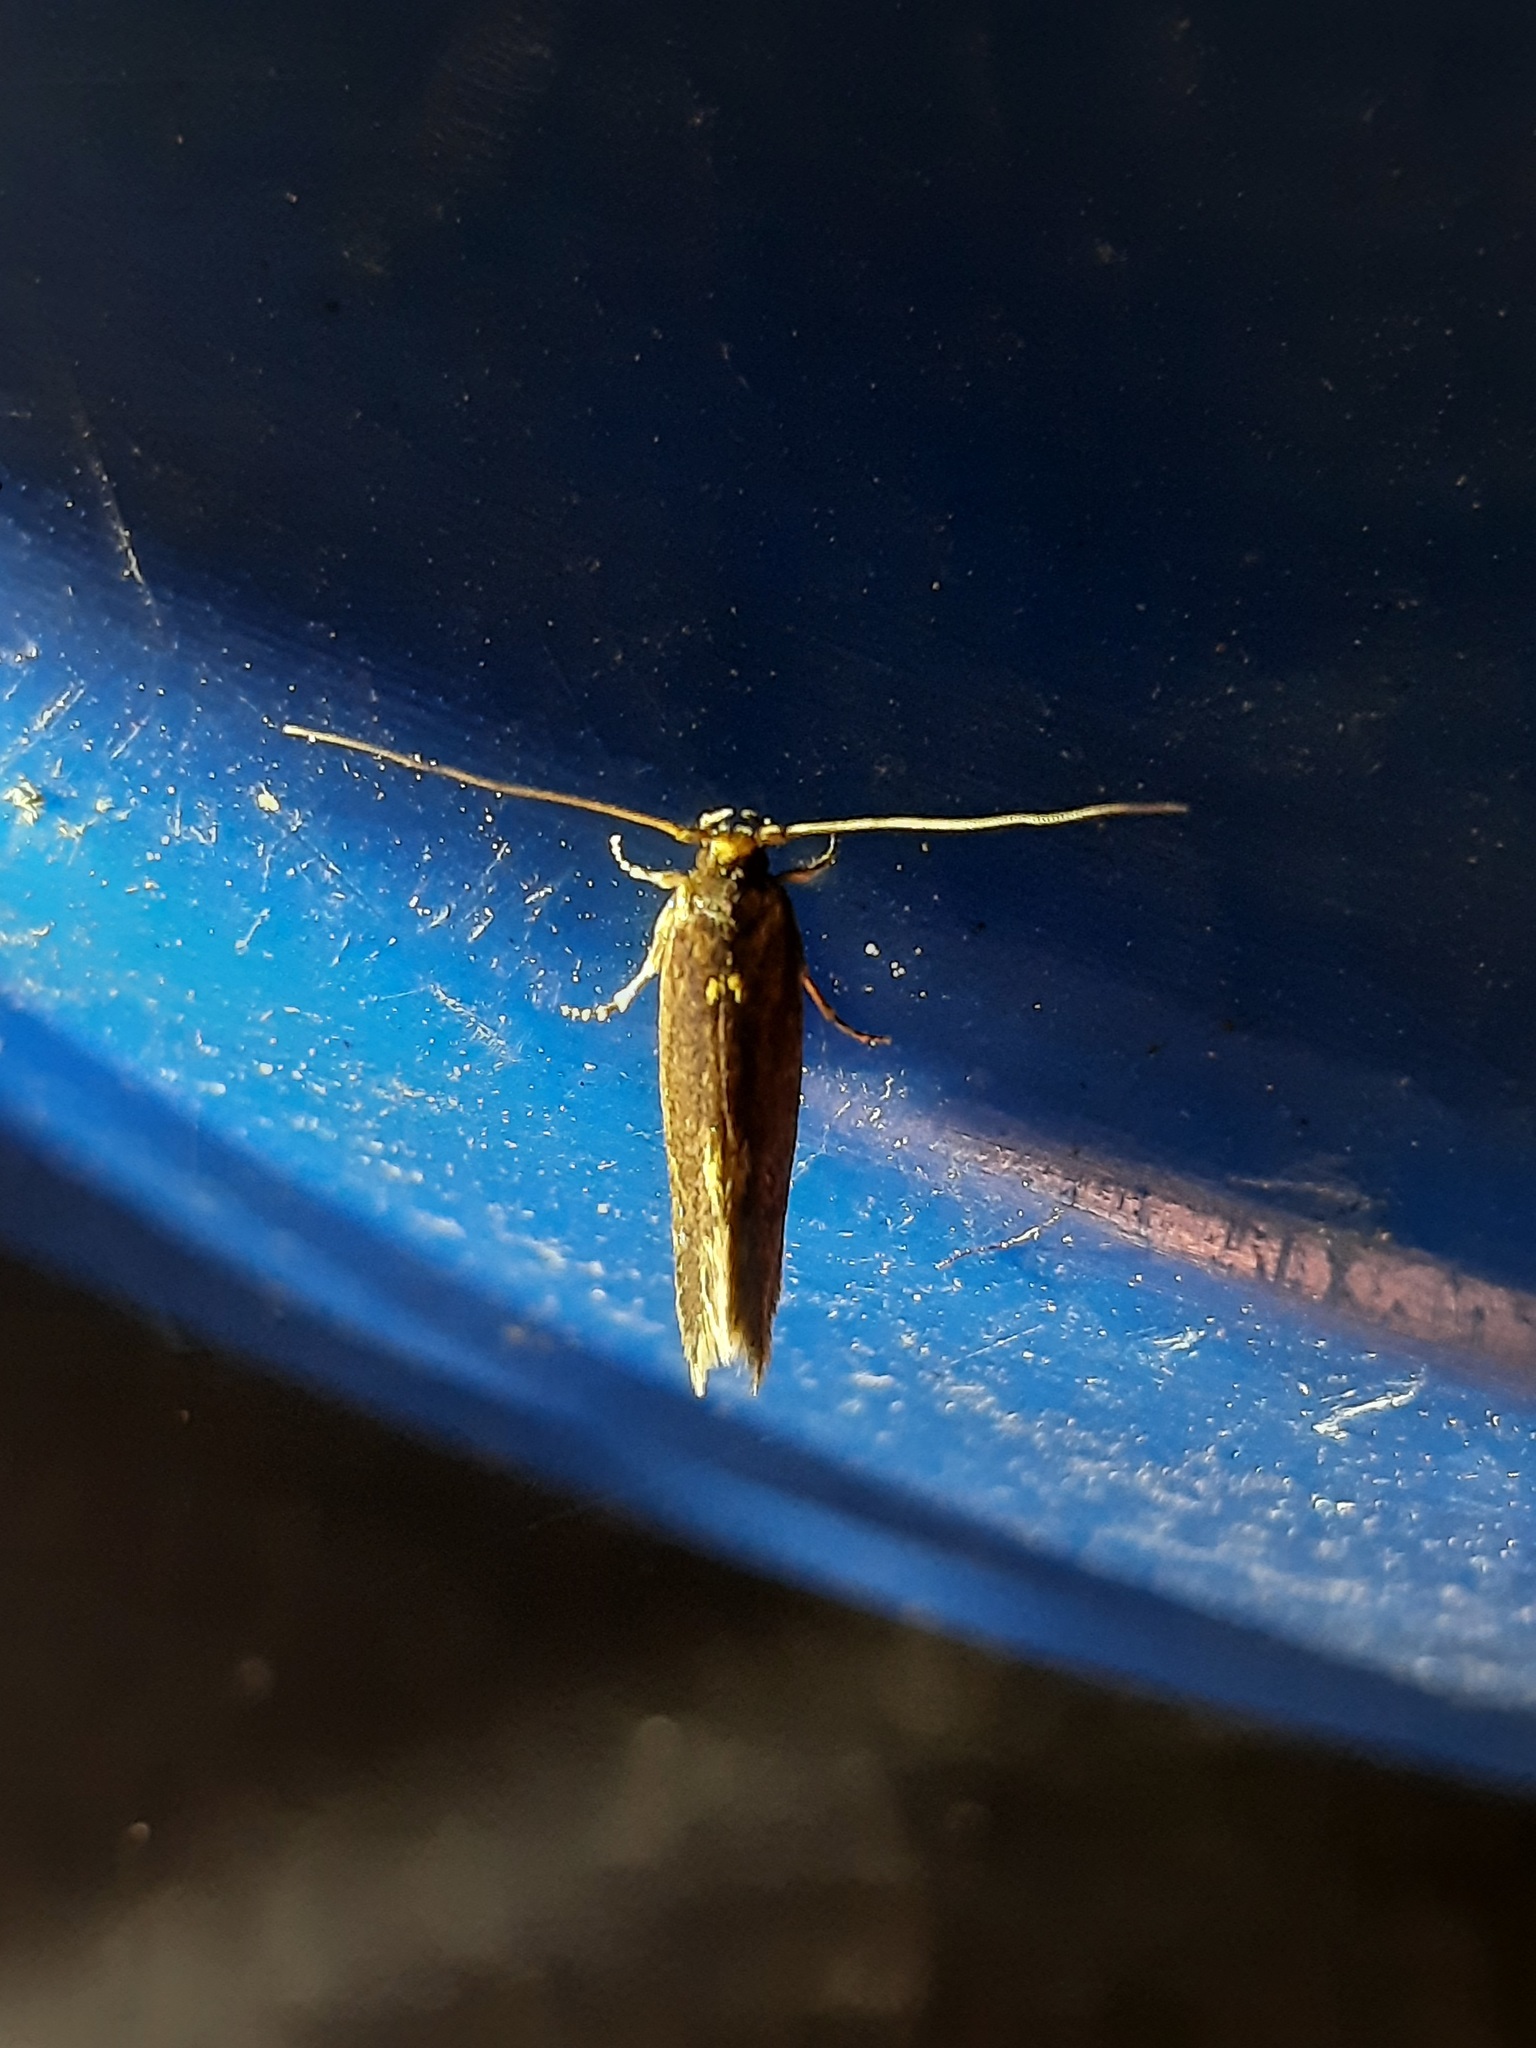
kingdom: Animalia
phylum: Arthropoda
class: Insecta
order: Lepidoptera
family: Tineidae
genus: Opogona
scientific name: Opogona omoscopa
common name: Moth
